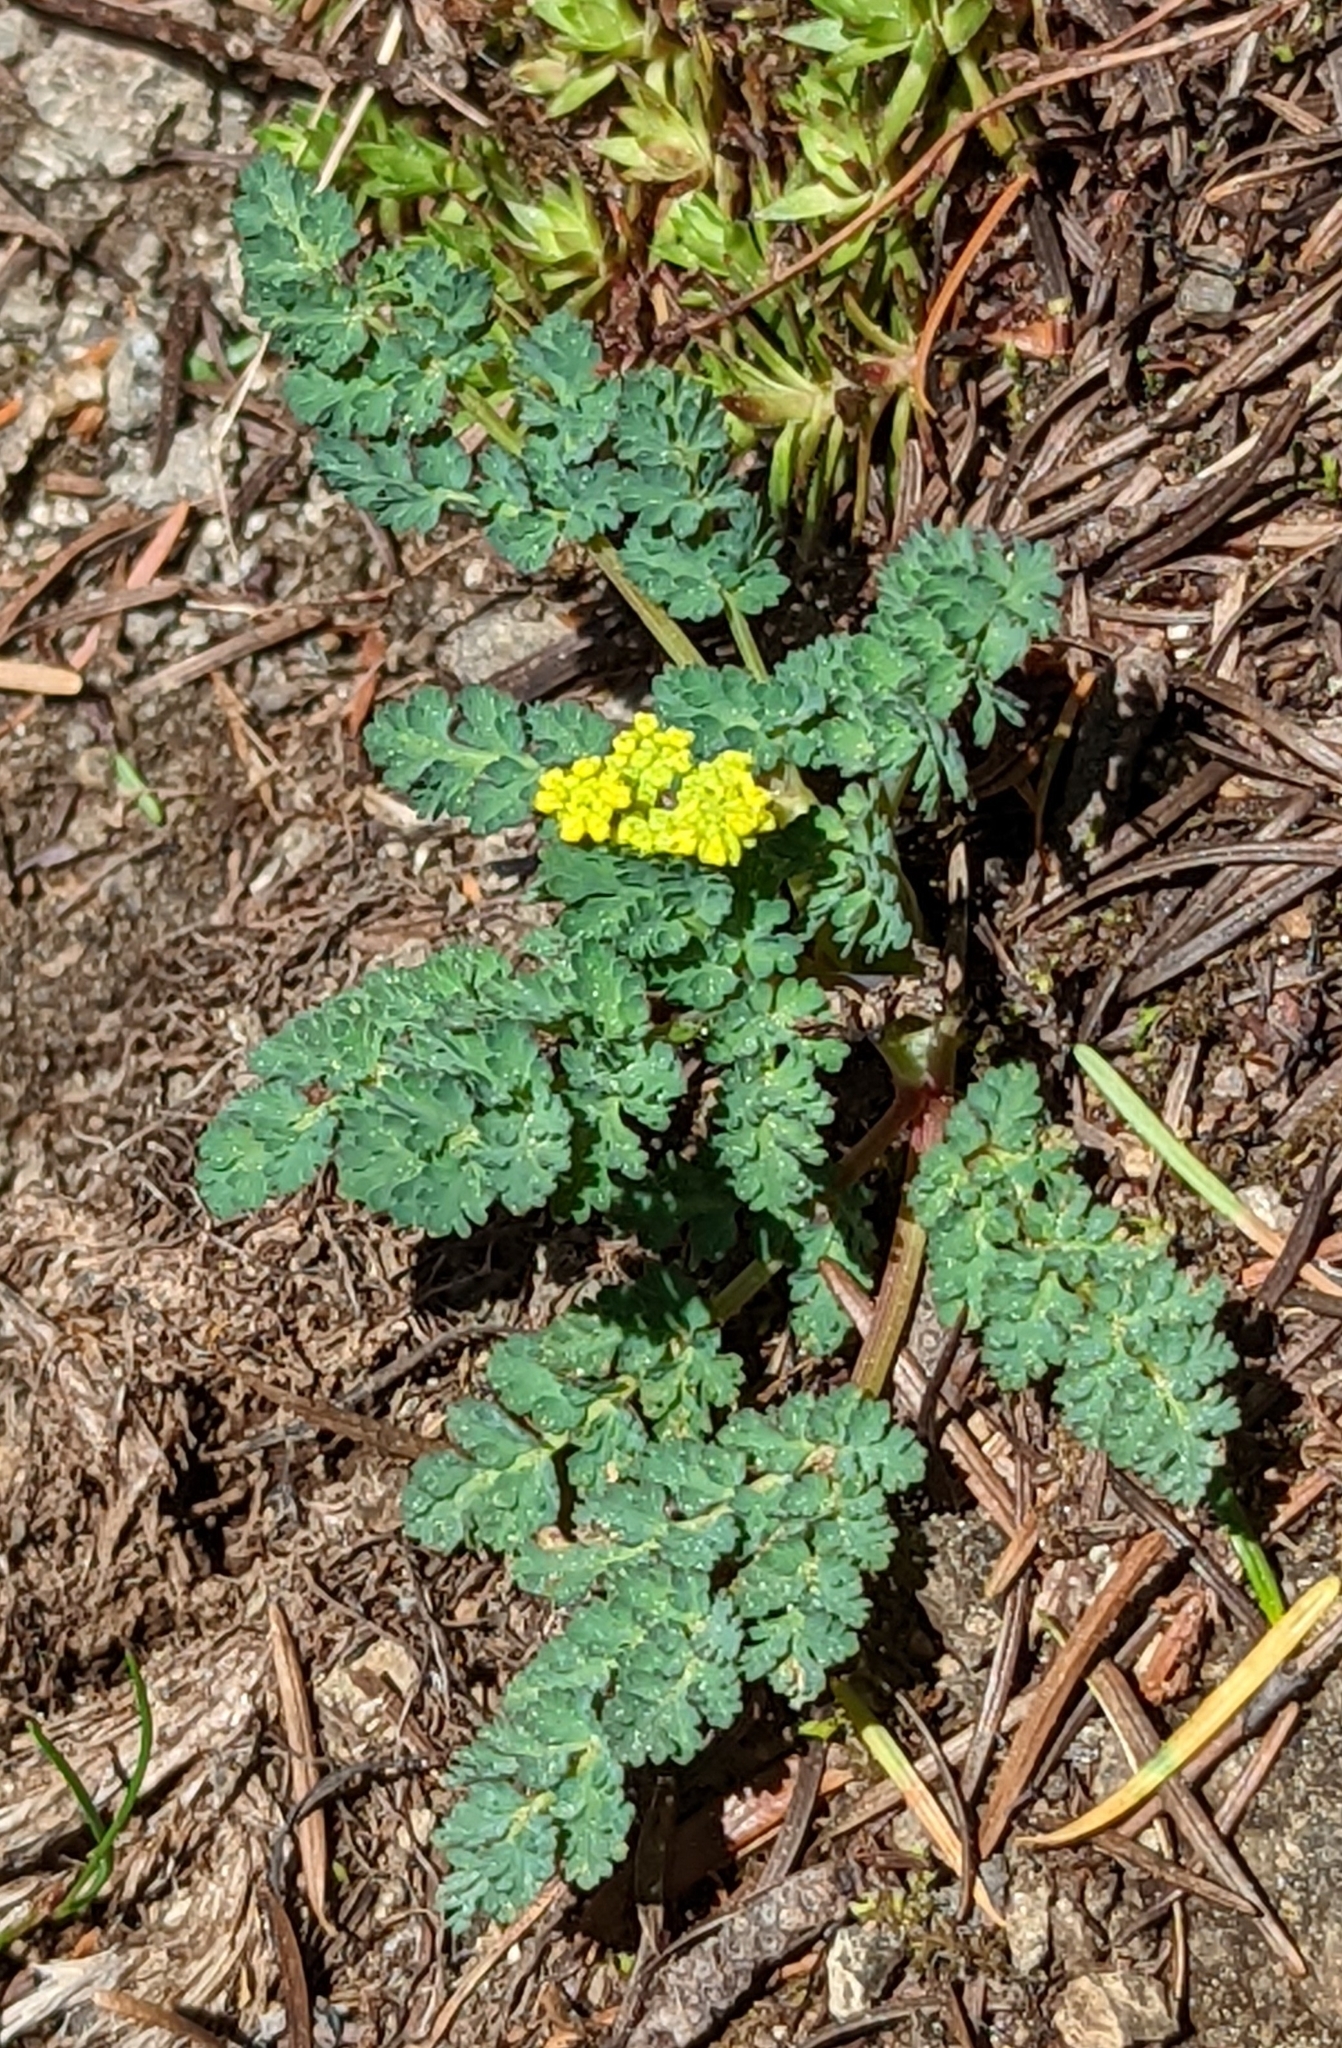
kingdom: Plantae
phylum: Tracheophyta
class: Magnoliopsida
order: Apiales
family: Apiaceae
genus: Lomatium
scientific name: Lomatium martindalei
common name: Cascade desert-parsley
